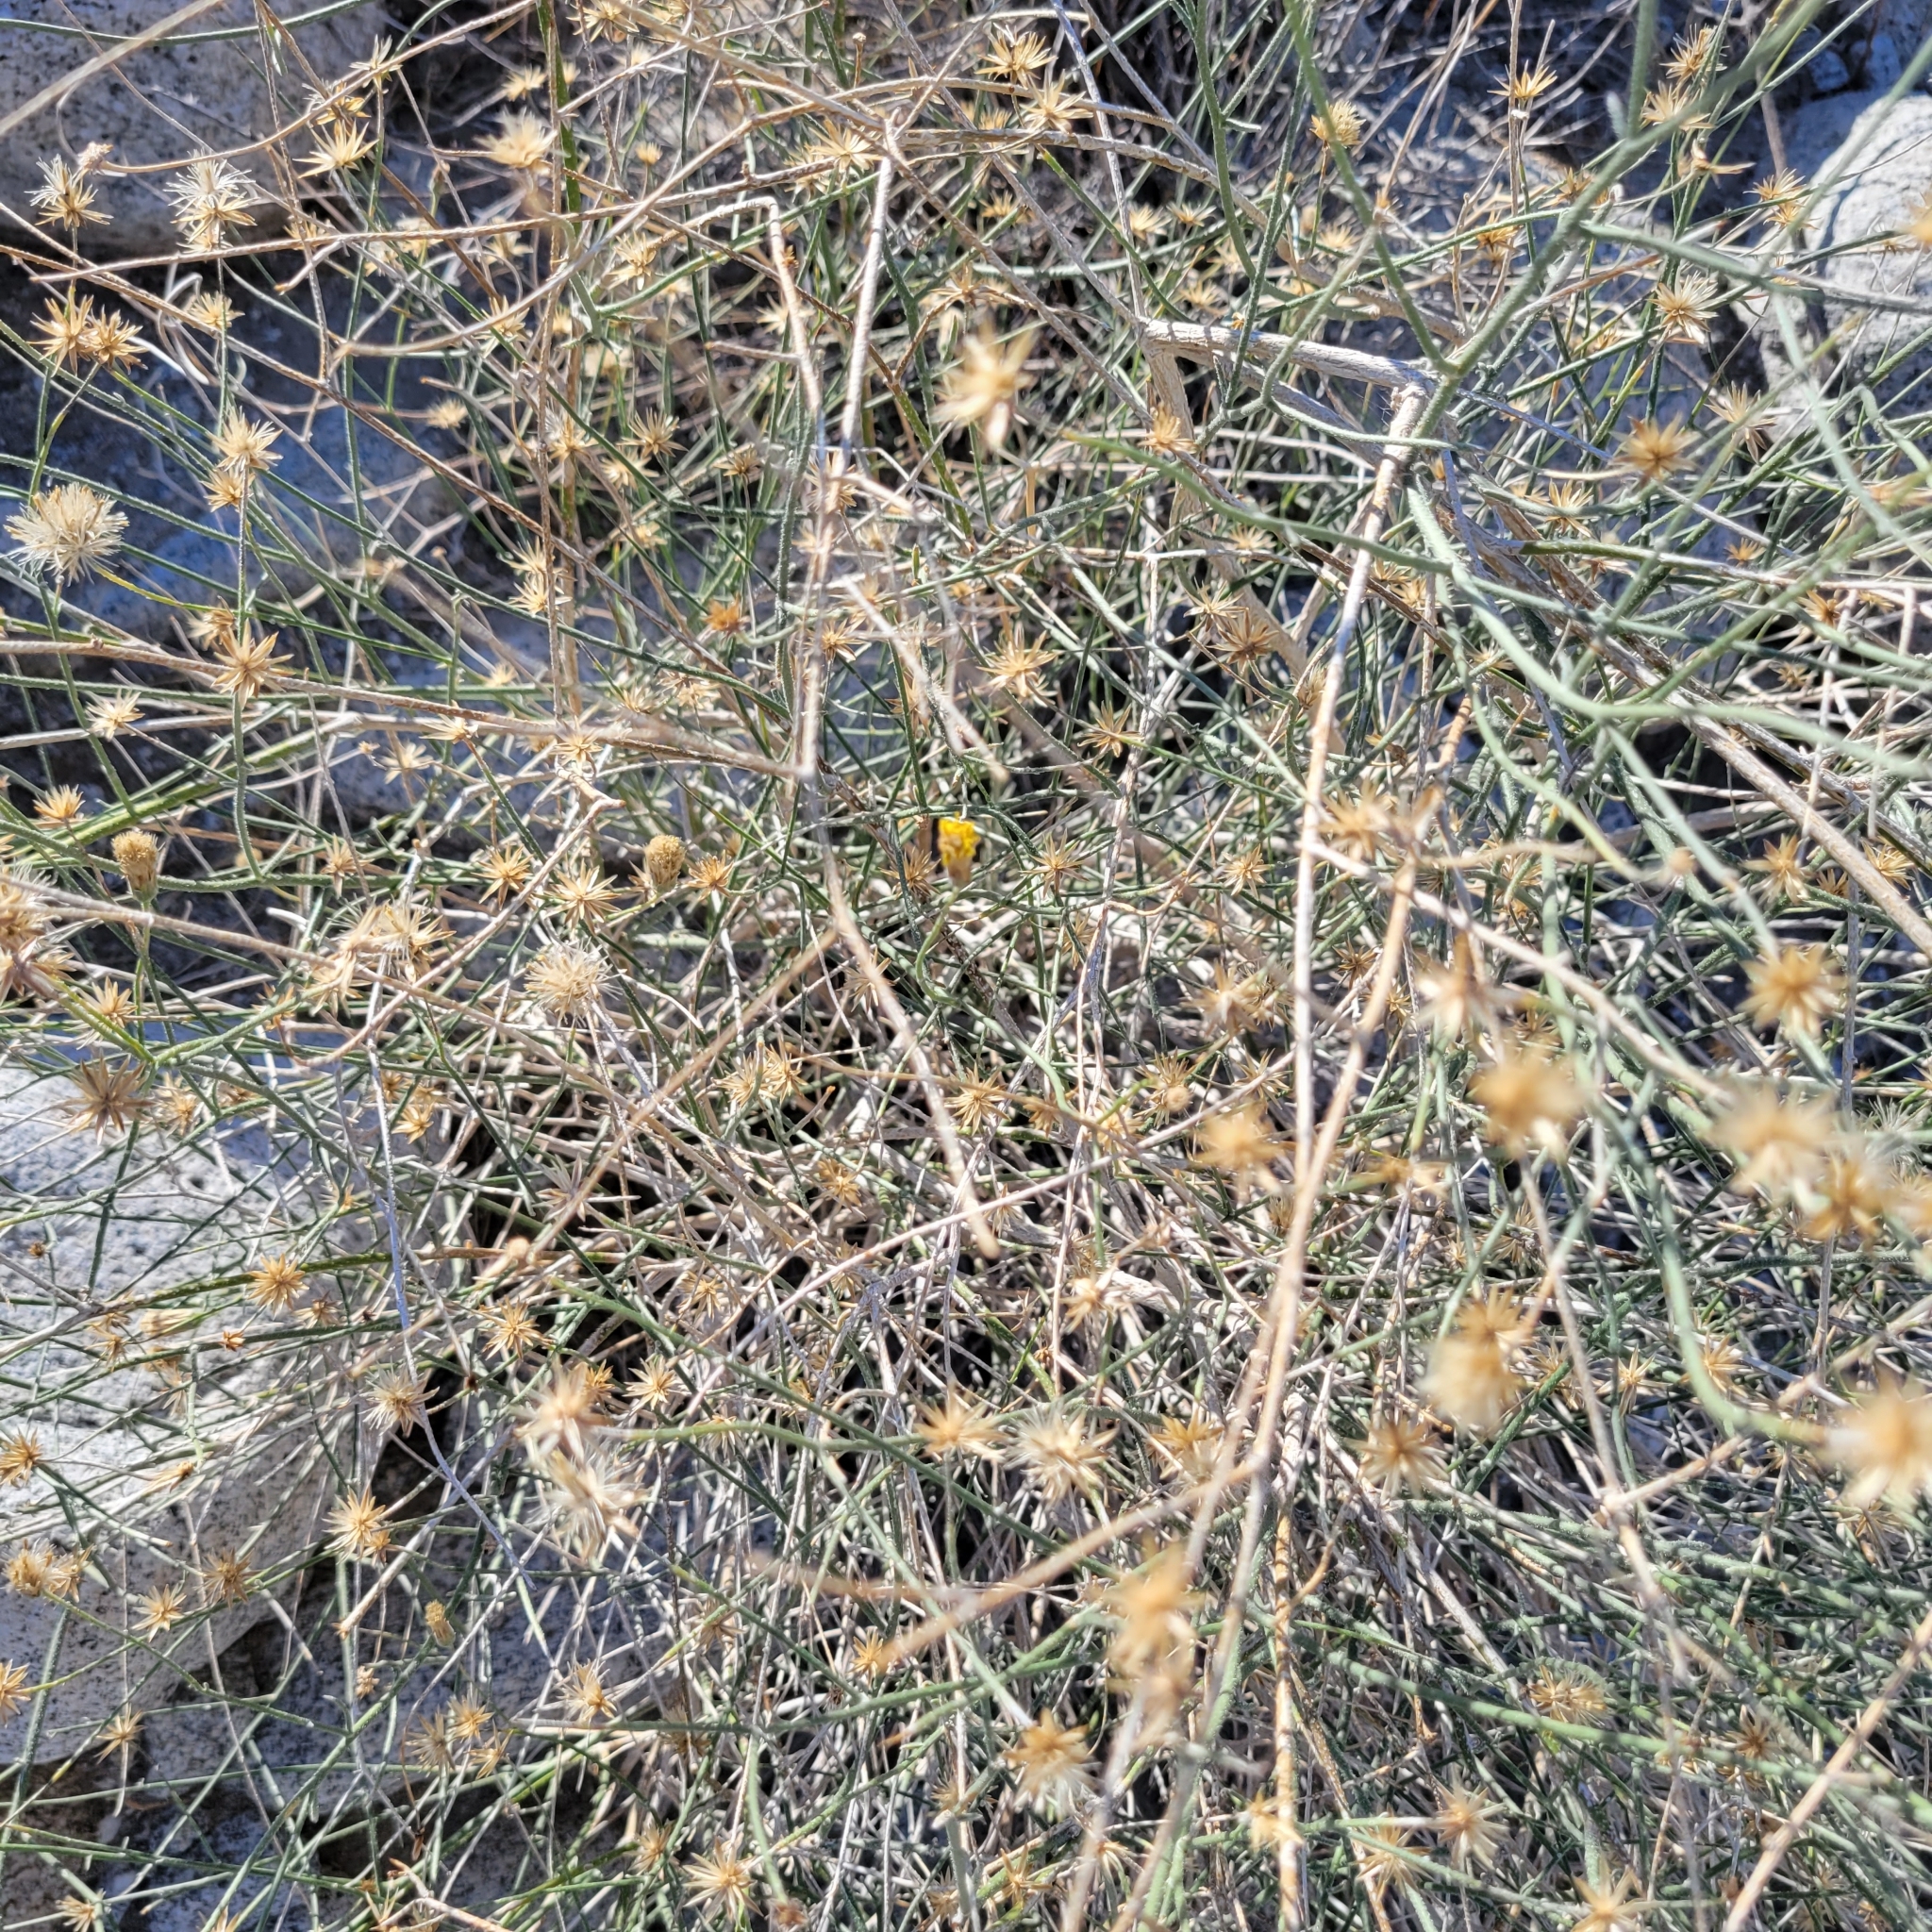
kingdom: Plantae
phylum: Tracheophyta
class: Magnoliopsida
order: Asterales
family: Asteraceae
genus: Bebbia
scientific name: Bebbia juncea
